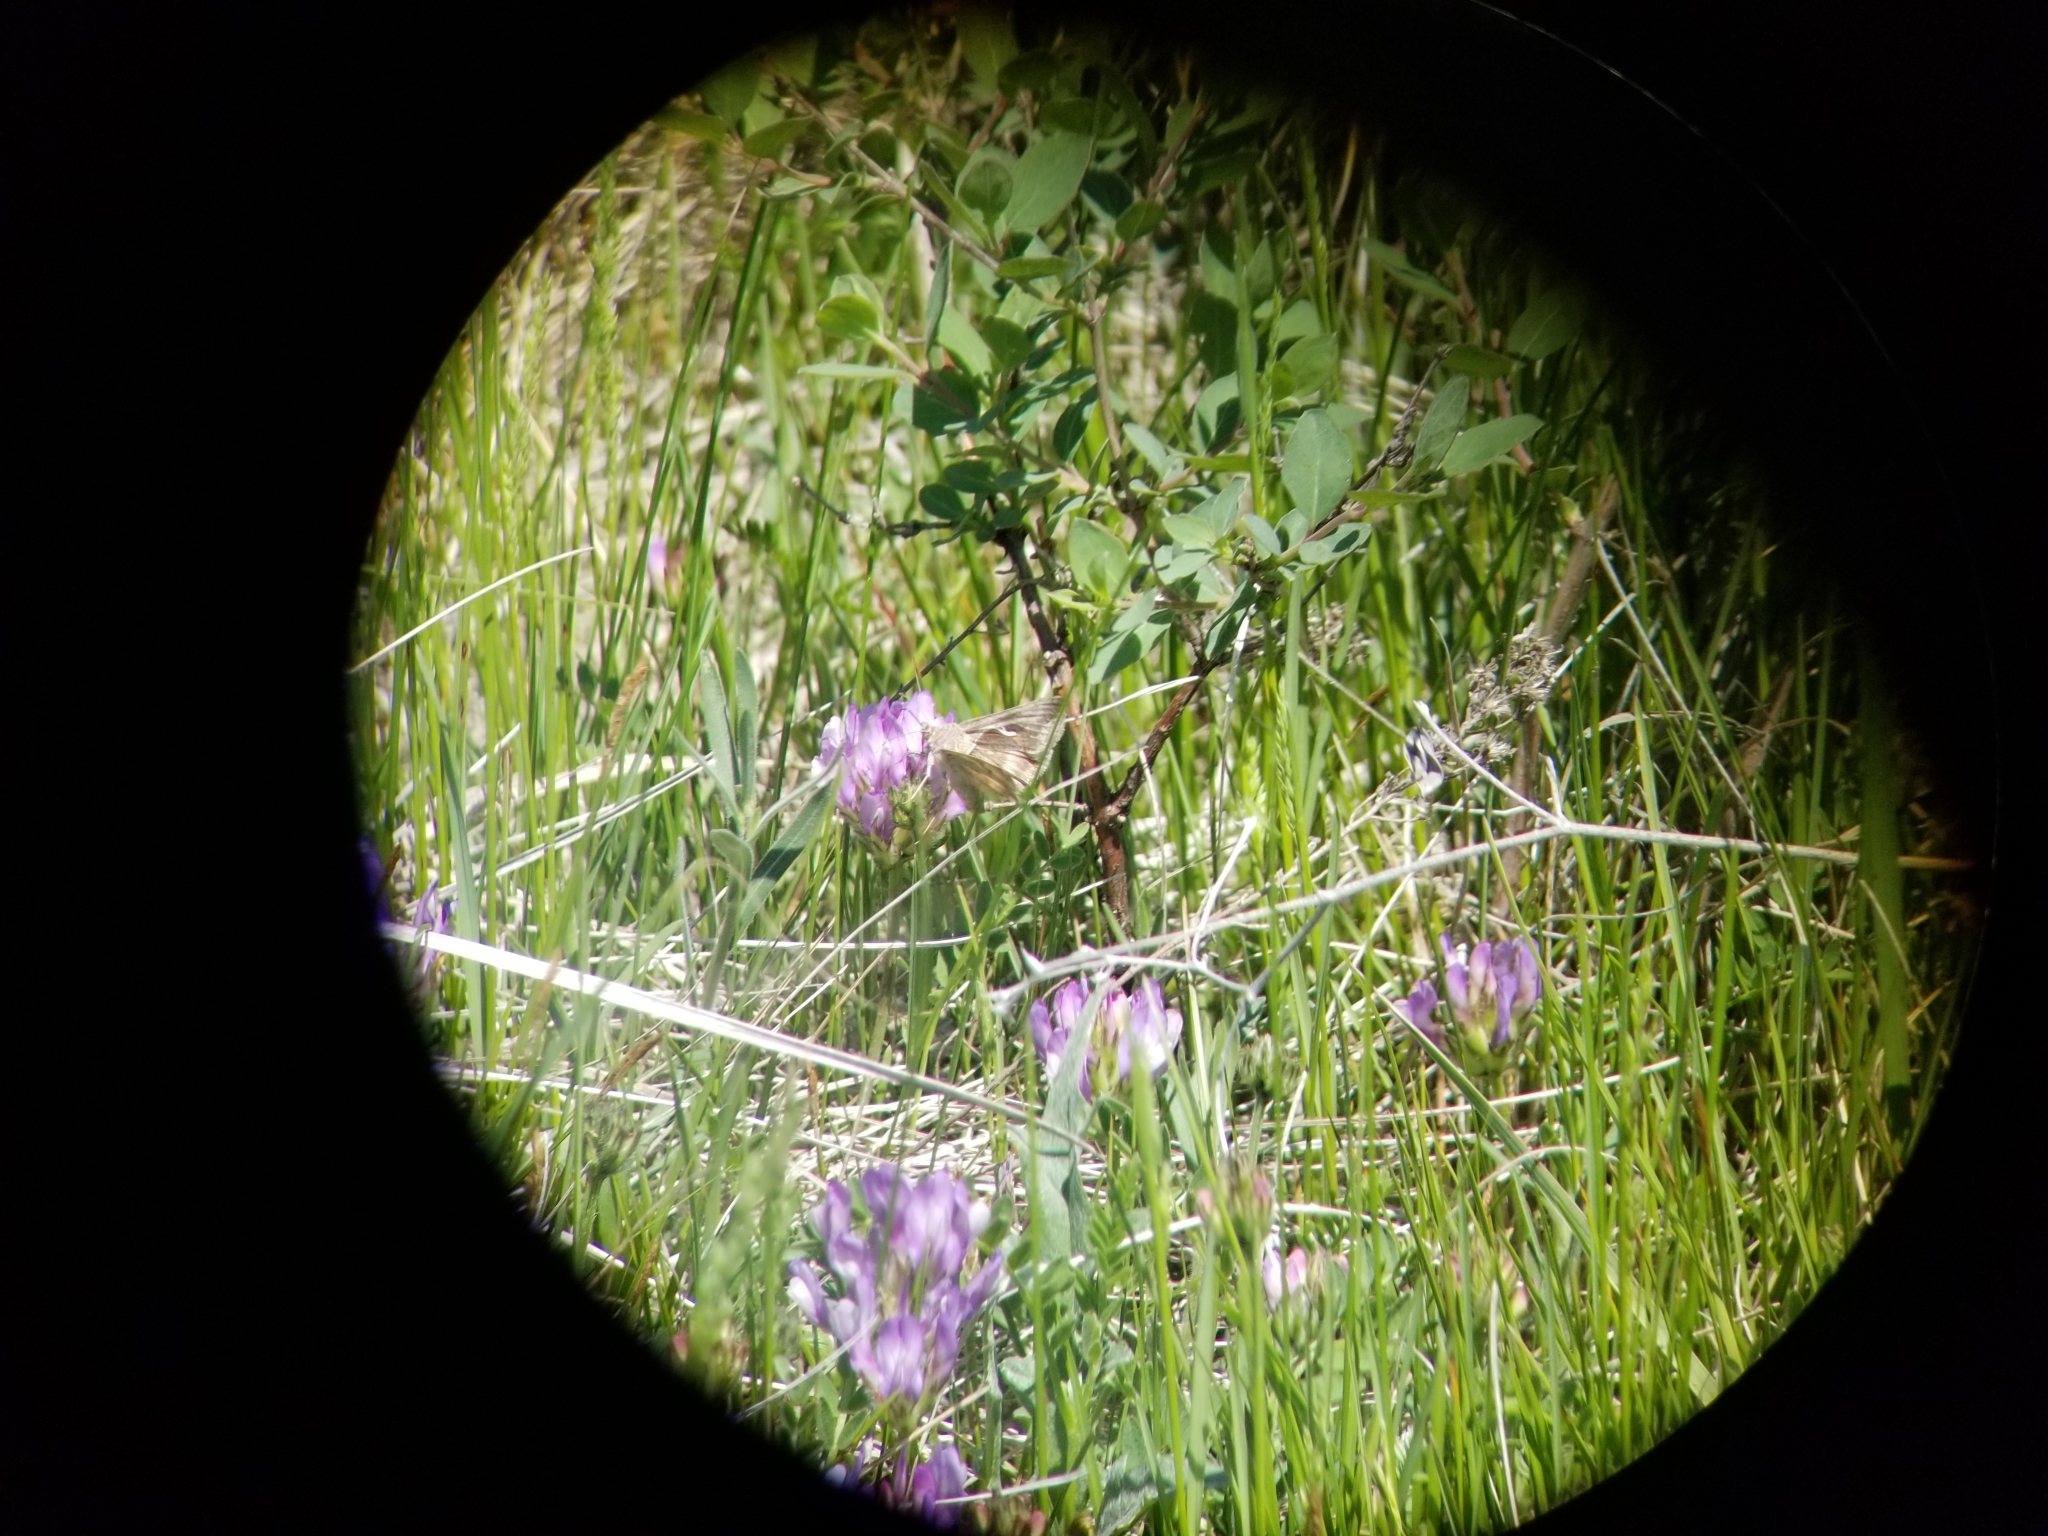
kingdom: Animalia
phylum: Arthropoda
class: Insecta
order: Lepidoptera
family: Noctuidae
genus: Anagrapha
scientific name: Anagrapha falcifera
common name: Celery looper
